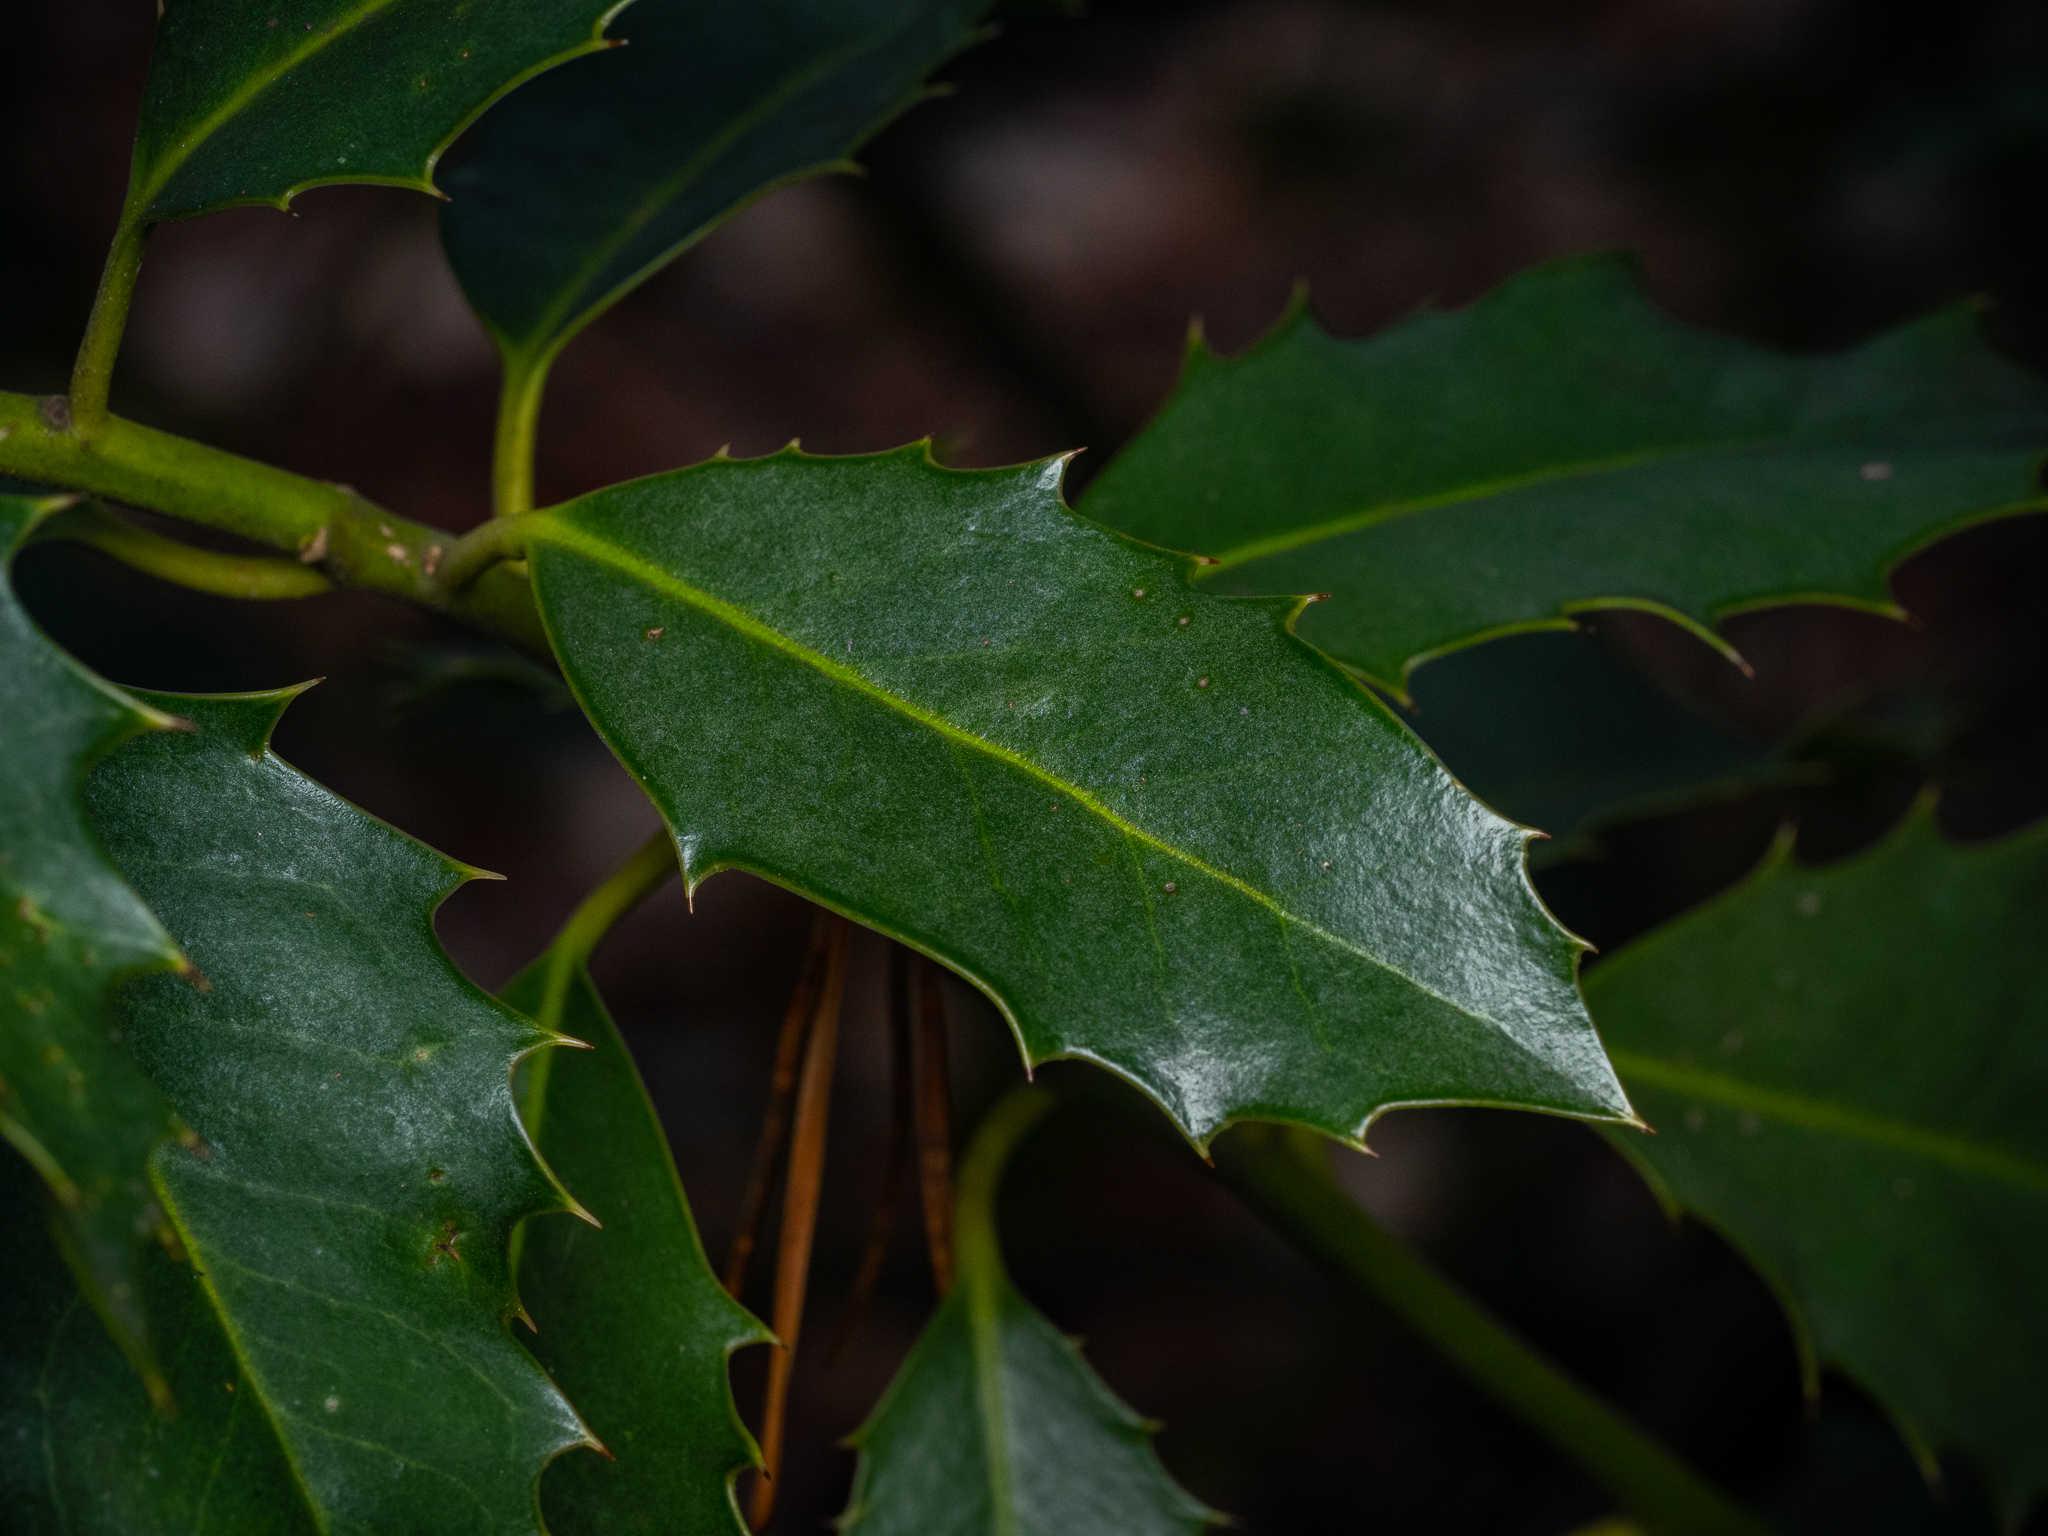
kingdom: Plantae
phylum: Tracheophyta
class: Magnoliopsida
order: Aquifoliales
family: Aquifoliaceae
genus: Ilex
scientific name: Ilex aquifolium
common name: English holly
